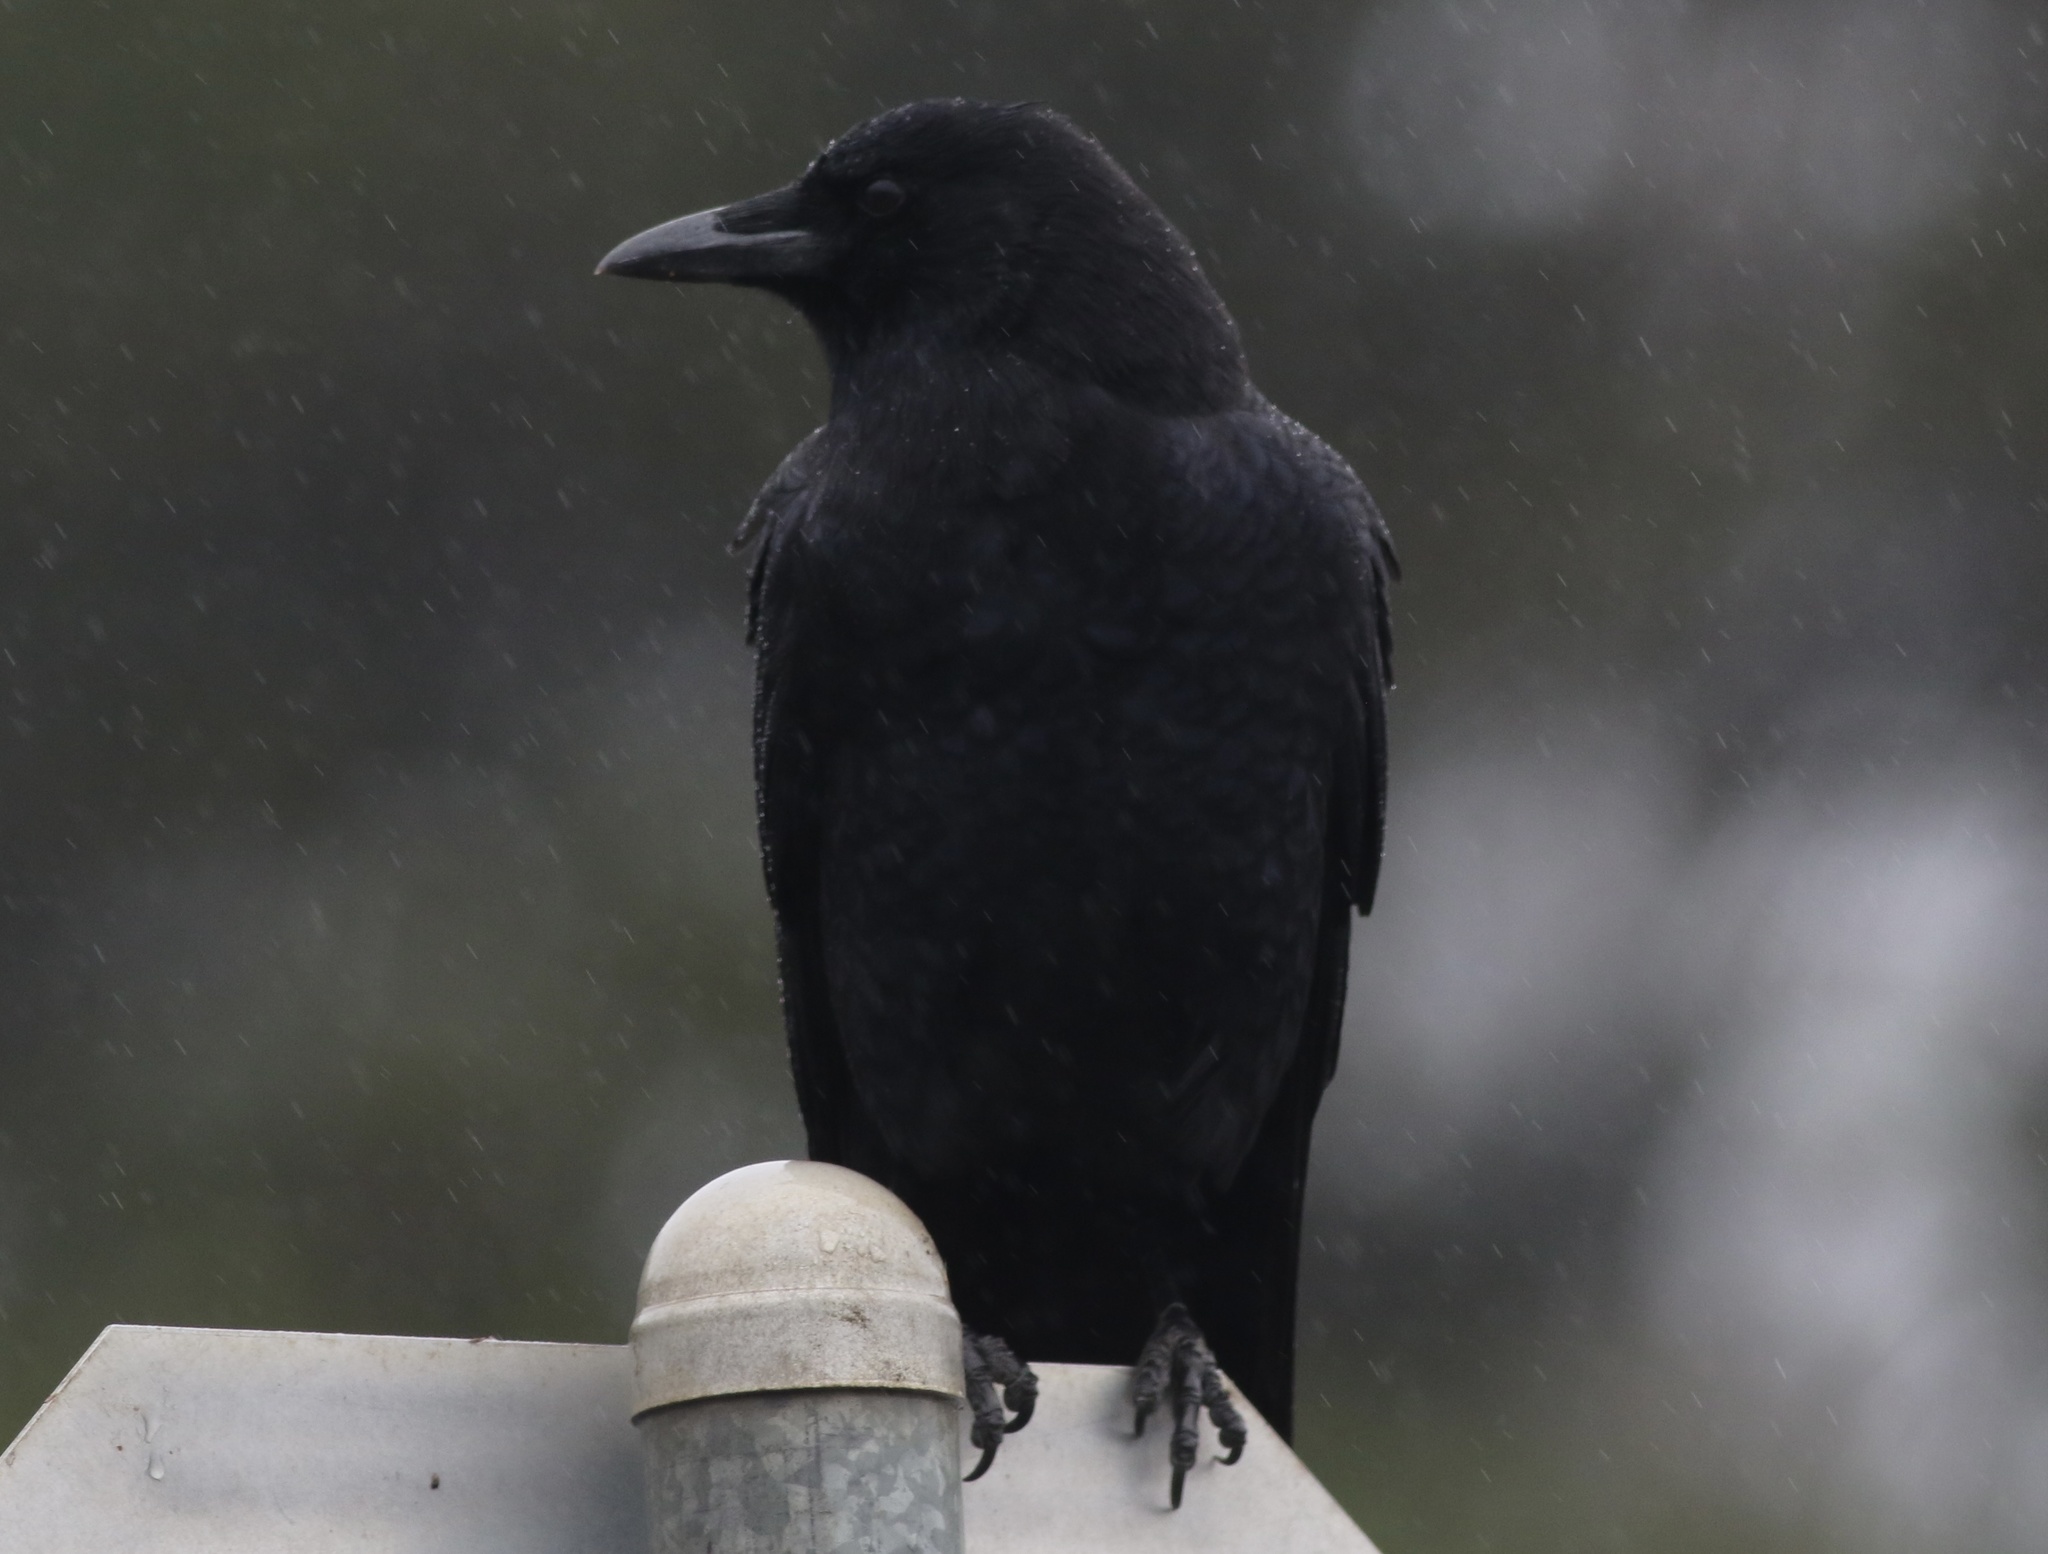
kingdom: Animalia
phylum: Chordata
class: Aves
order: Passeriformes
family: Corvidae
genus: Corvus
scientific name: Corvus brachyrhynchos
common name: American crow
